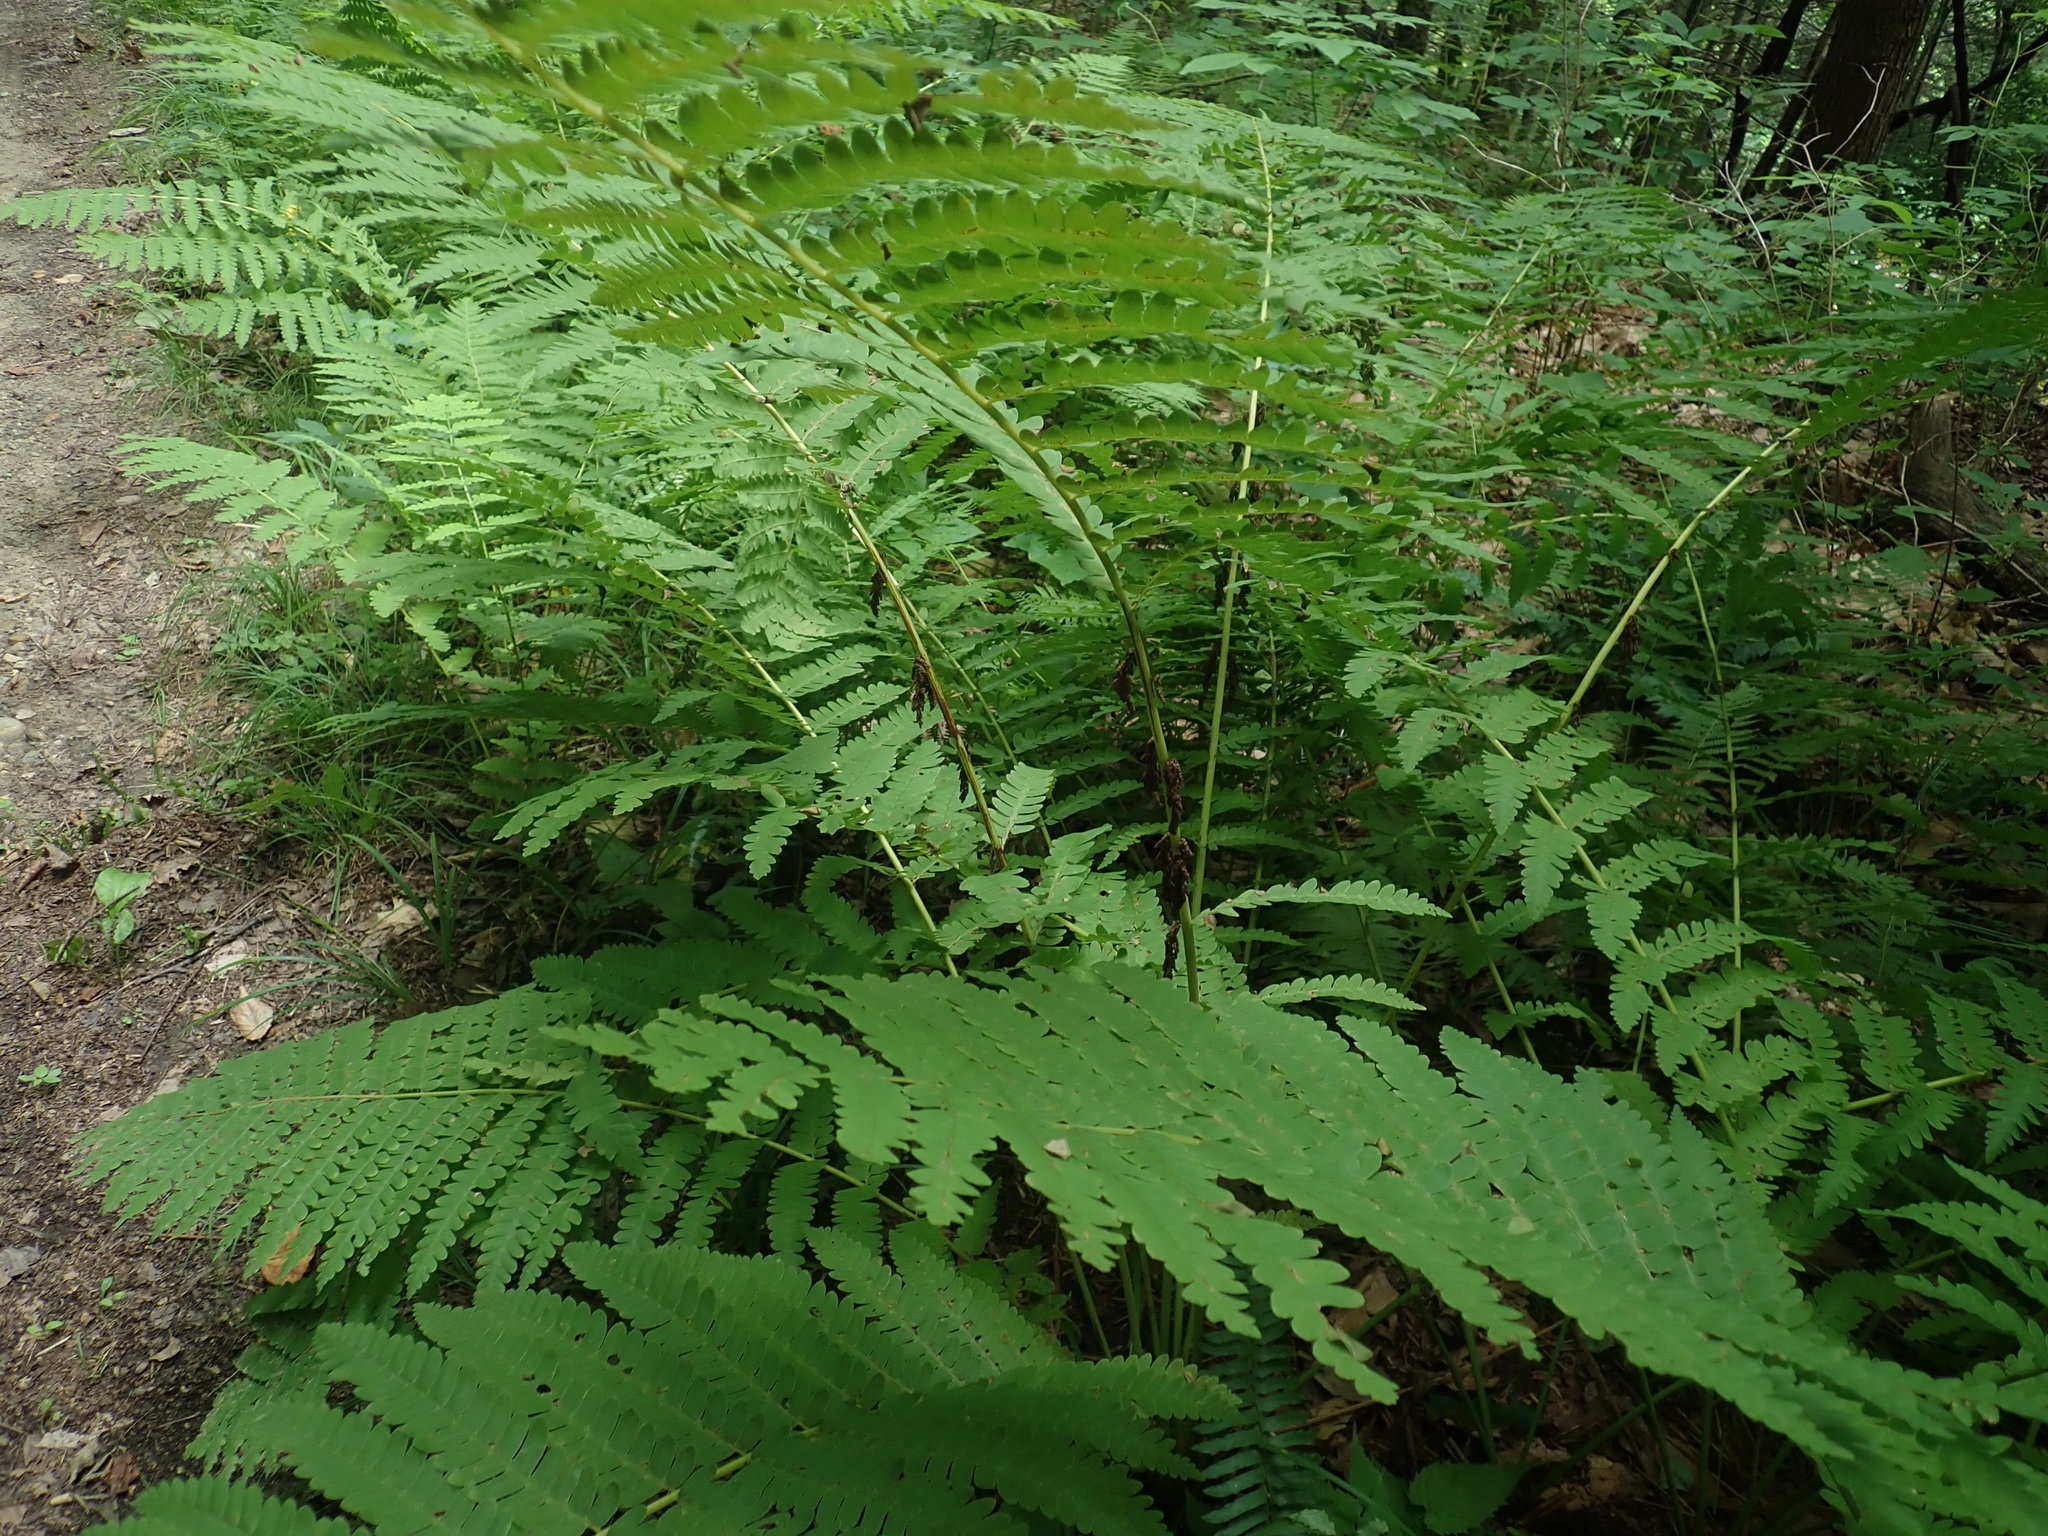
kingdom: Plantae
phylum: Tracheophyta
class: Polypodiopsida
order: Osmundales
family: Osmundaceae
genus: Claytosmunda
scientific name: Claytosmunda claytoniana
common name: Clayton's fern
